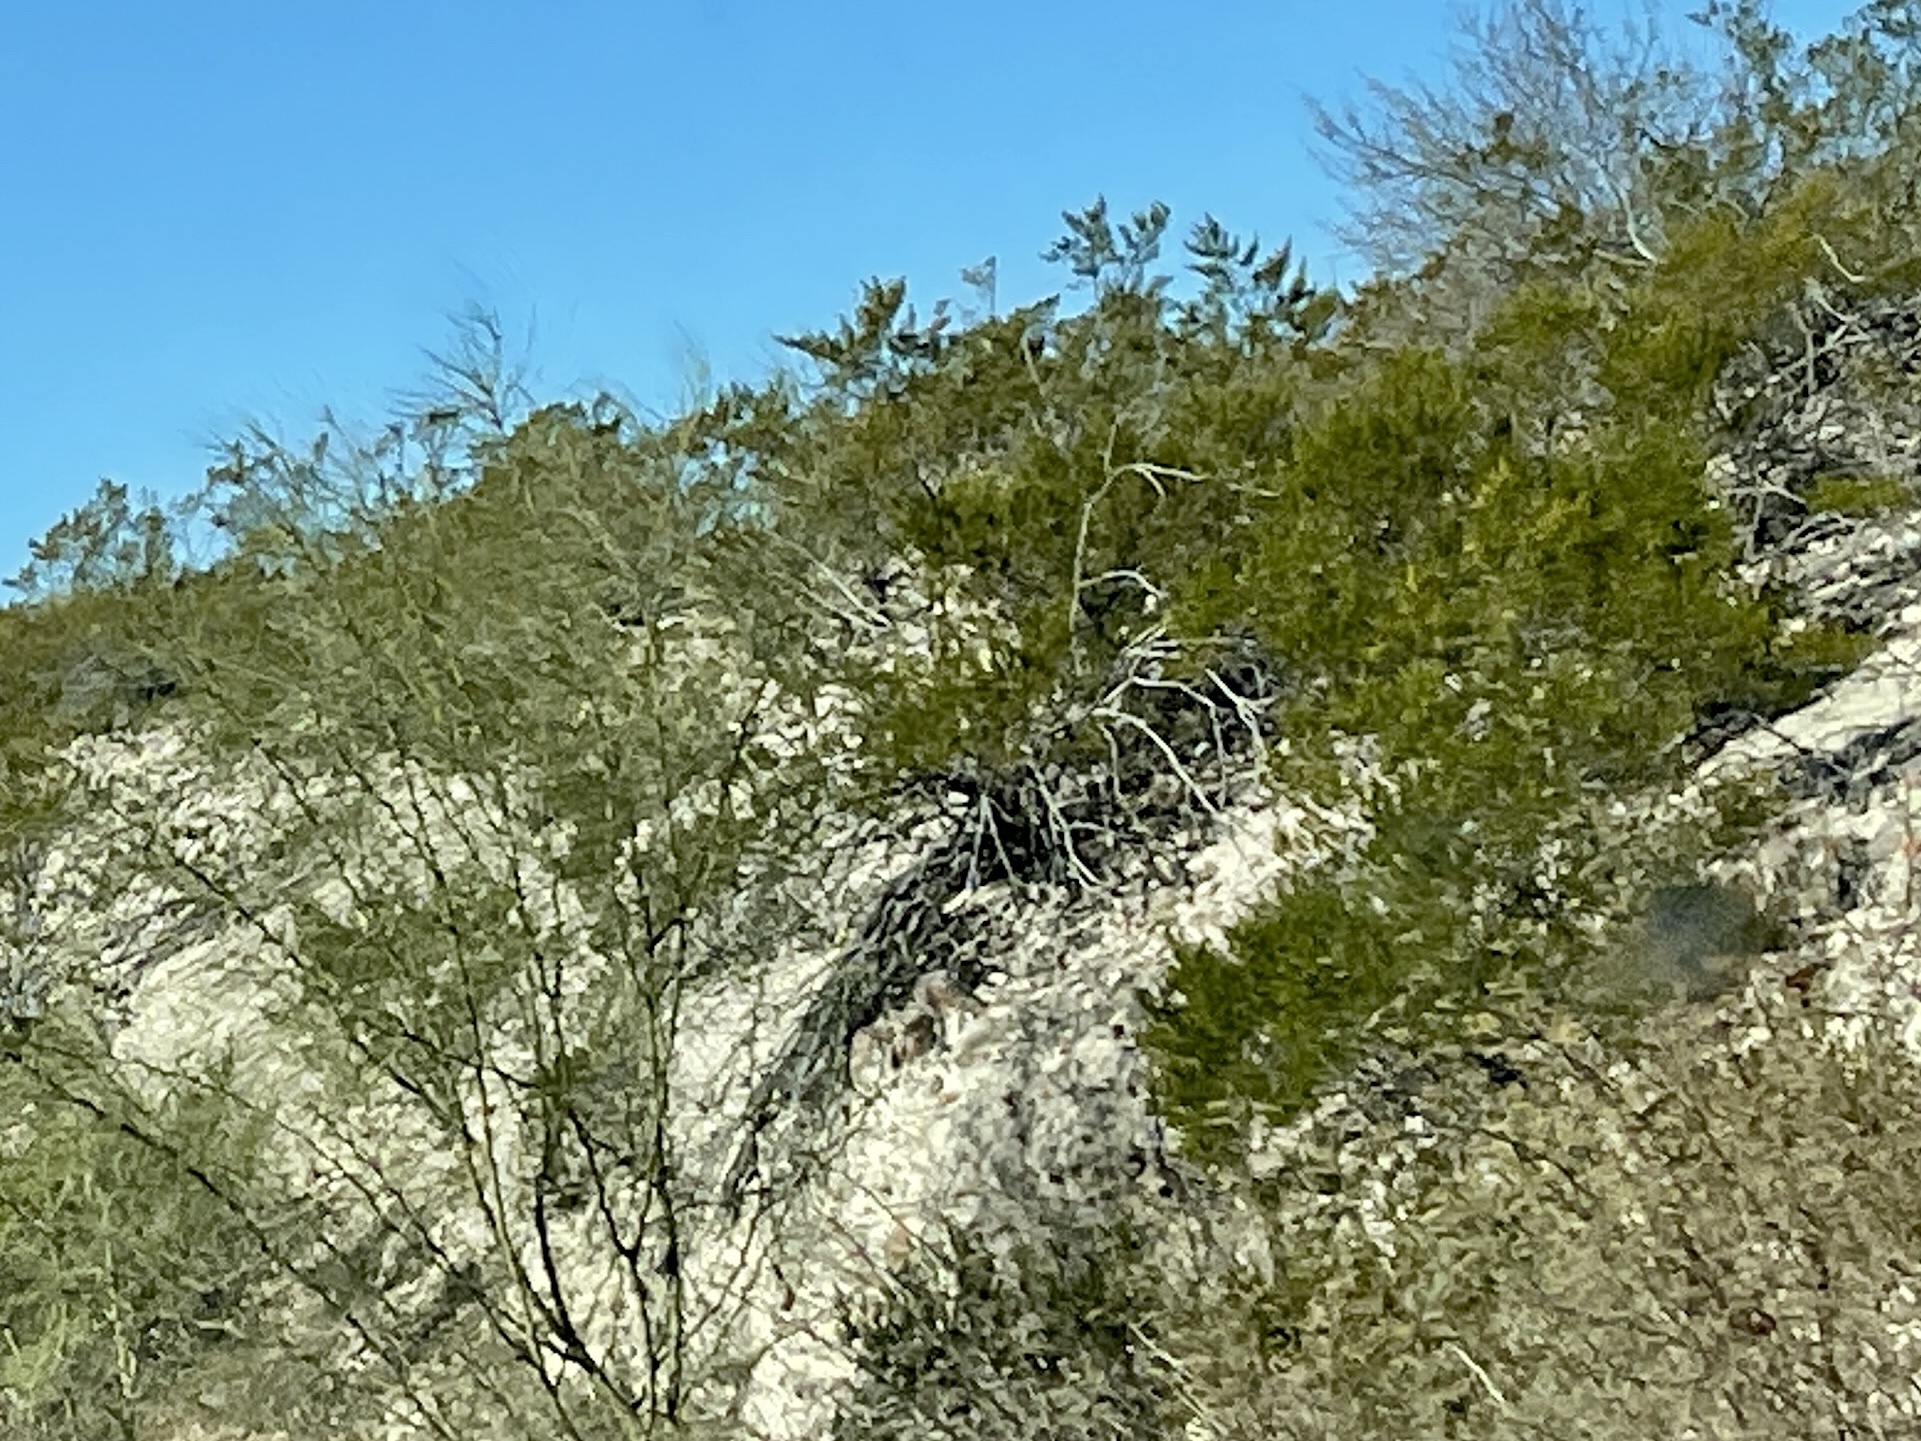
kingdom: Plantae
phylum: Tracheophyta
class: Magnoliopsida
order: Zygophyllales
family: Zygophyllaceae
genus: Larrea
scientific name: Larrea tridentata
